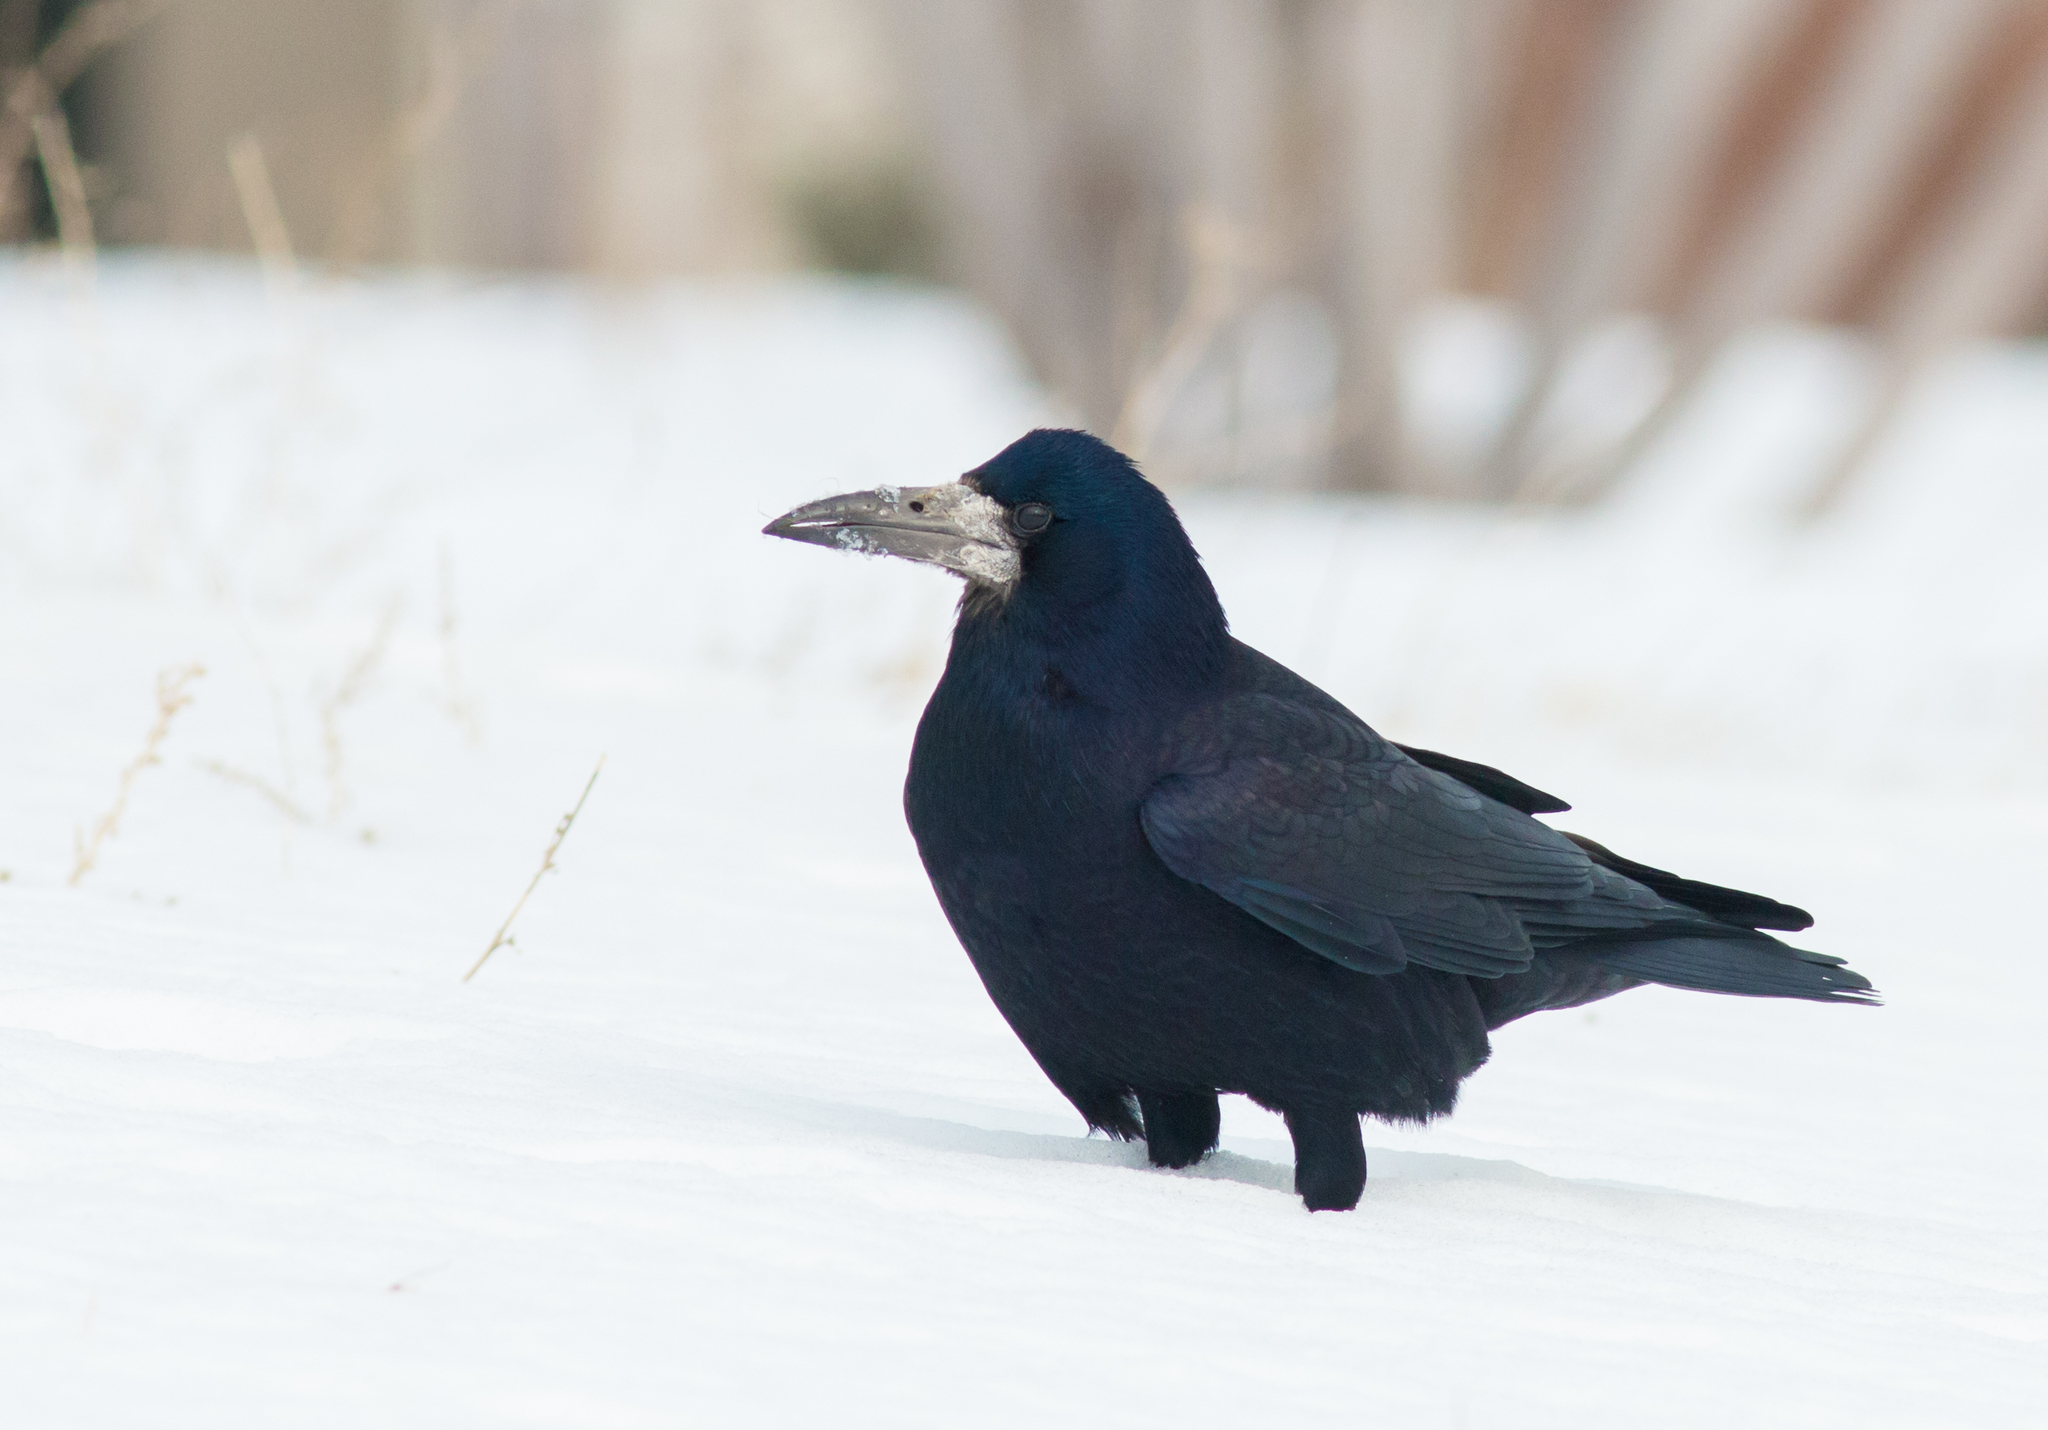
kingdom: Animalia
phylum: Chordata
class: Aves
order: Passeriformes
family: Corvidae
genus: Corvus
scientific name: Corvus frugilegus
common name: Rook
